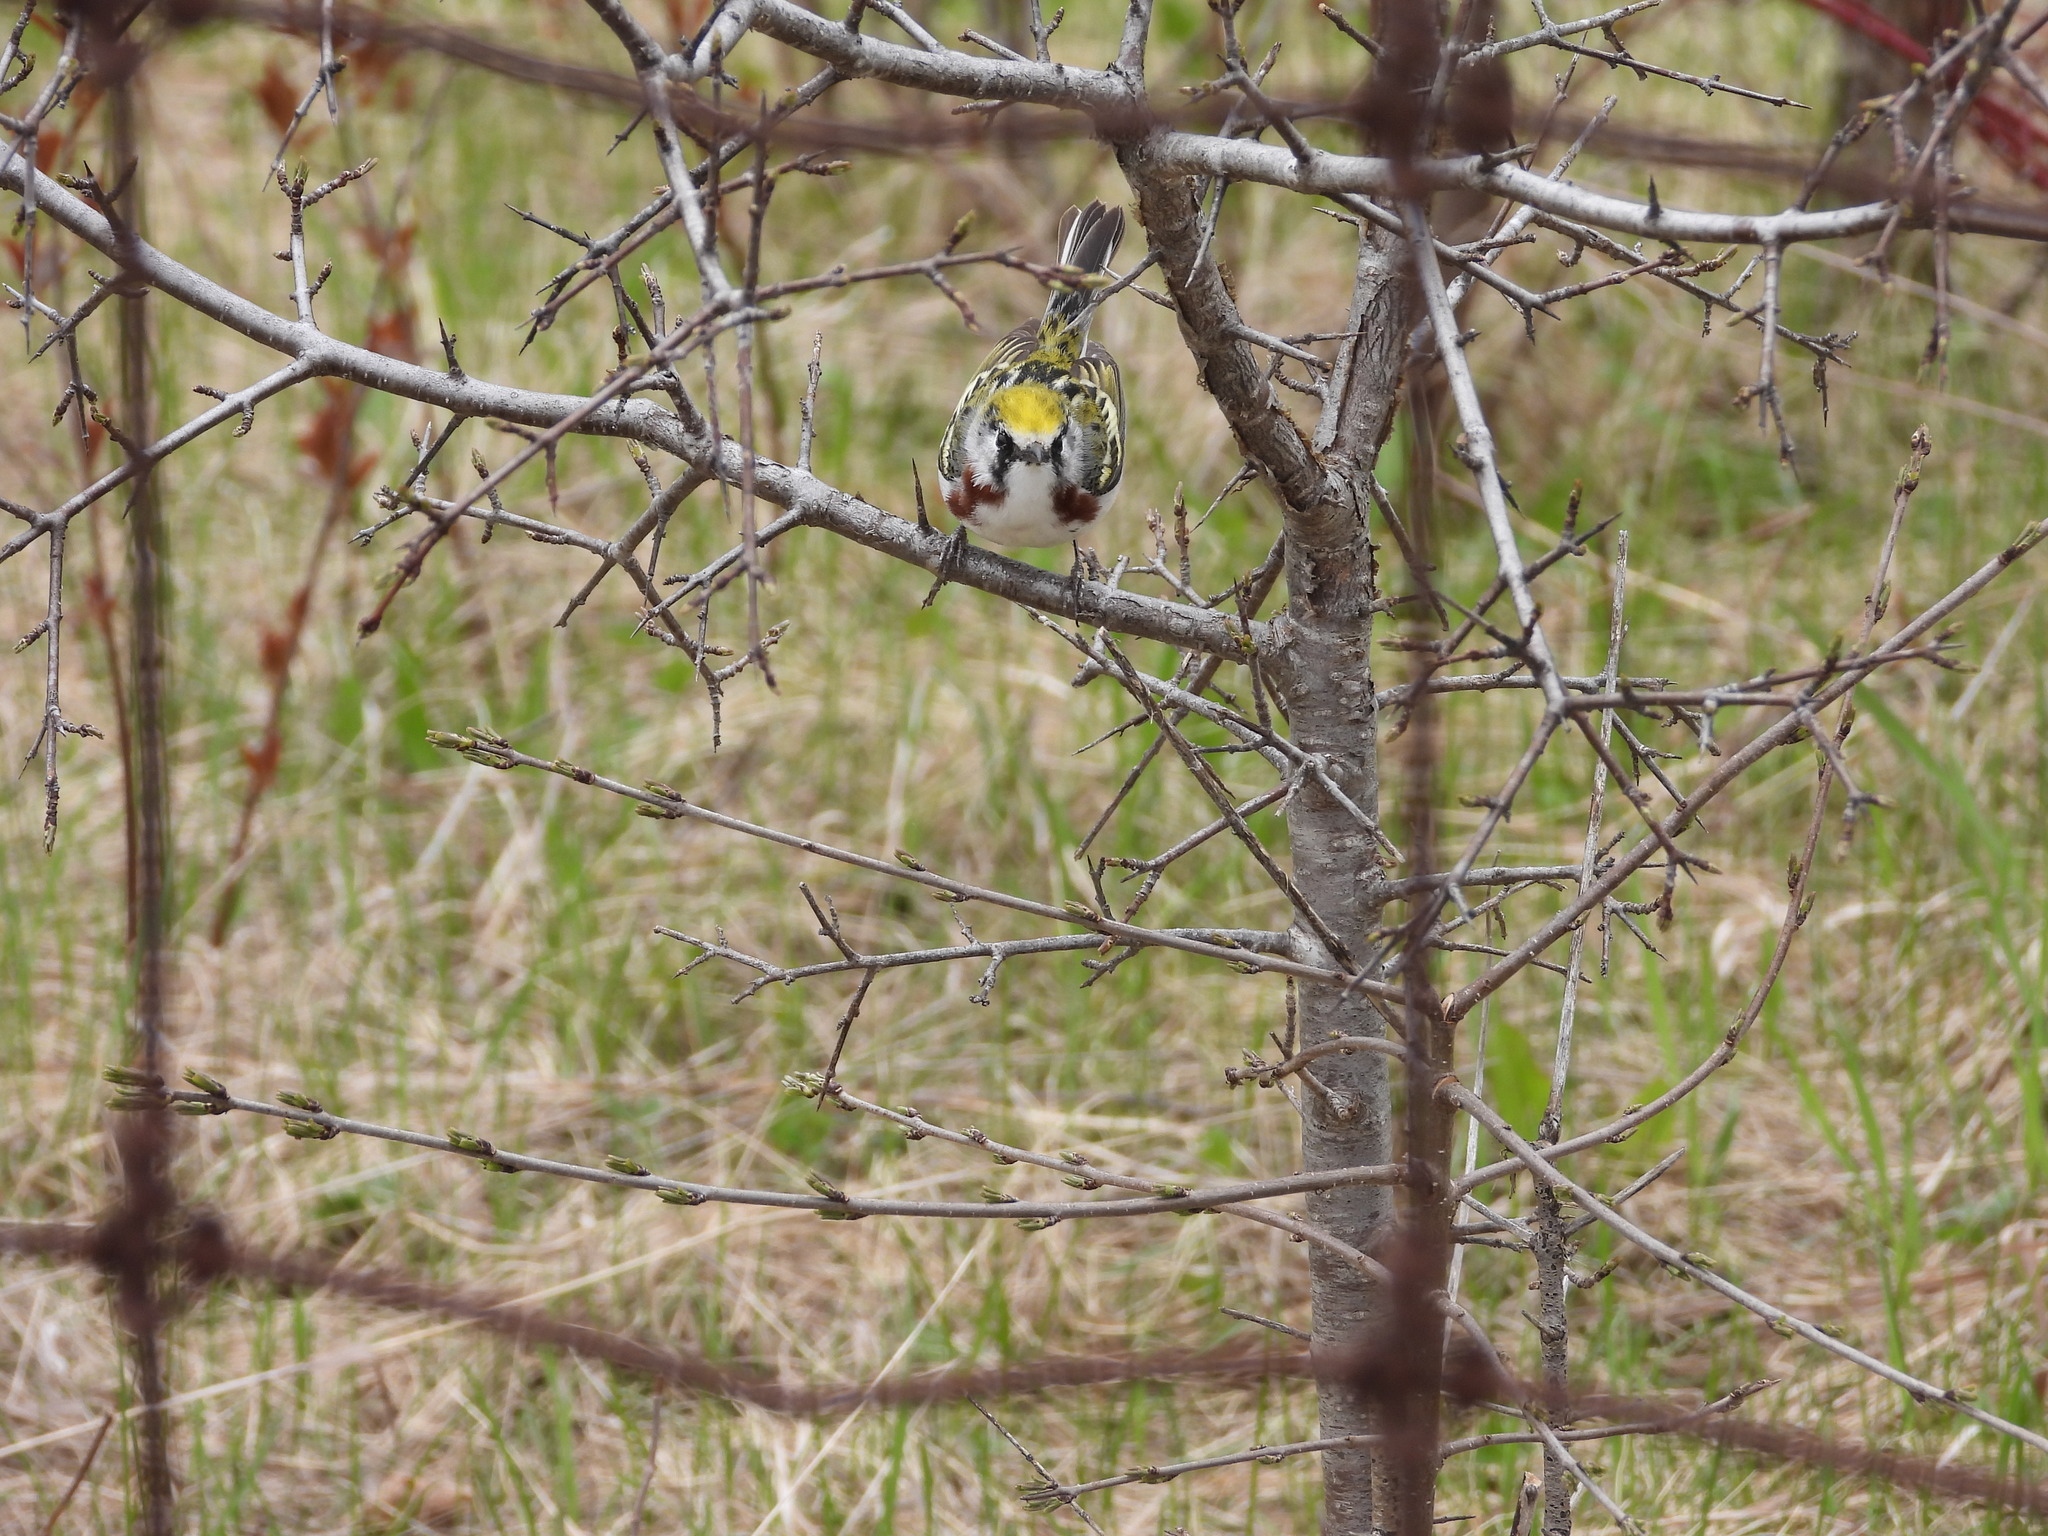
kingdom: Animalia
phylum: Chordata
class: Aves
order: Passeriformes
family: Parulidae
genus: Setophaga
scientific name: Setophaga pensylvanica
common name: Chestnut-sided warbler
